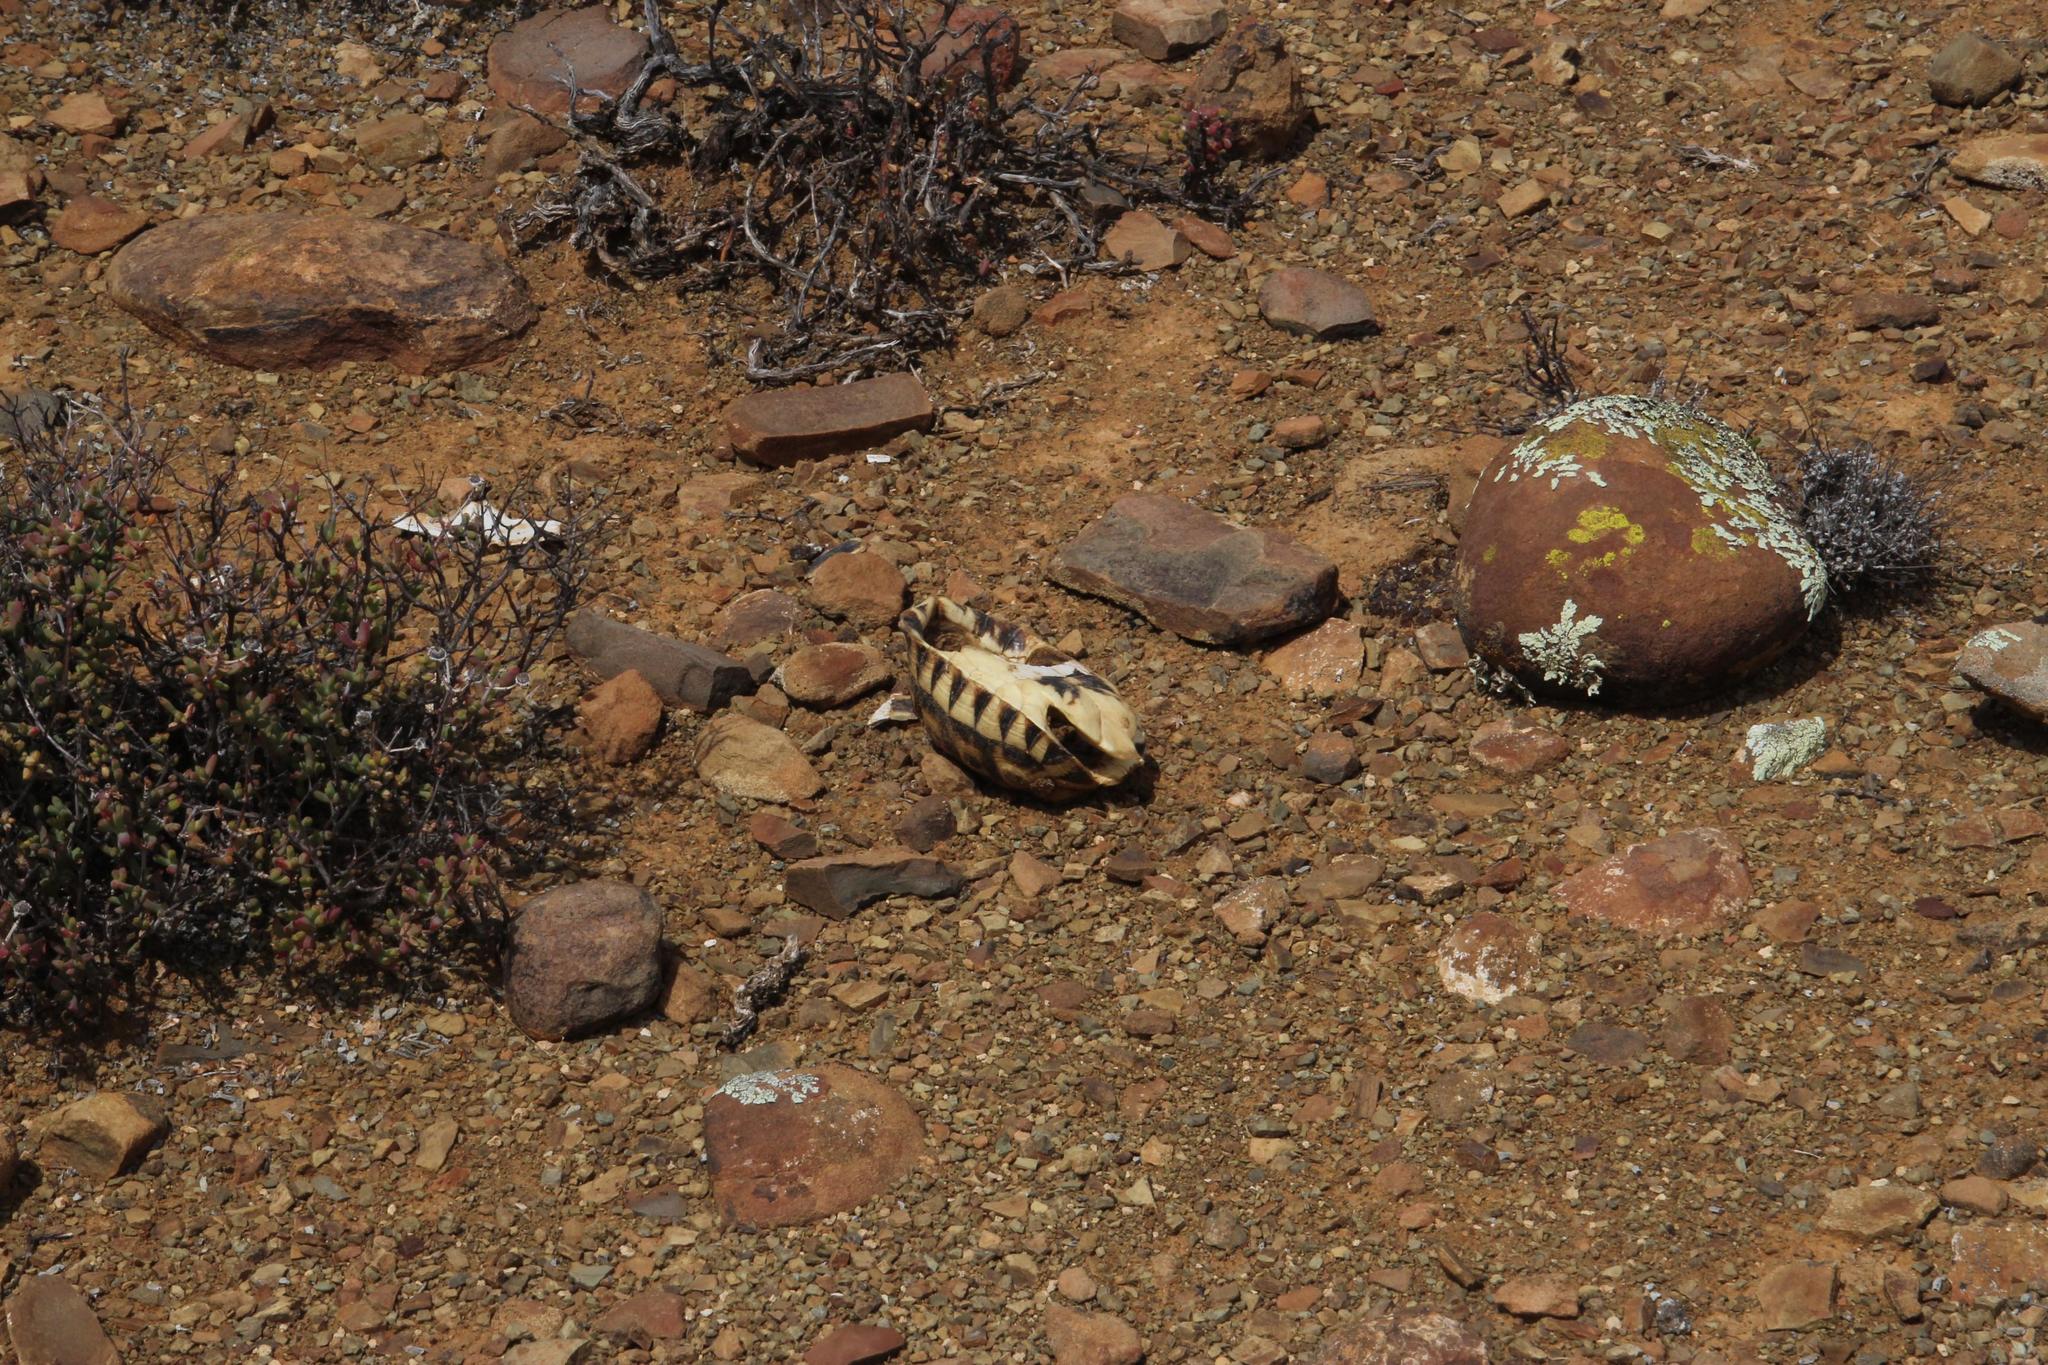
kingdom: Animalia
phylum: Chordata
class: Testudines
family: Testudinidae
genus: Chersina
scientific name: Chersina angulata
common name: South african bowsprit tortoise
